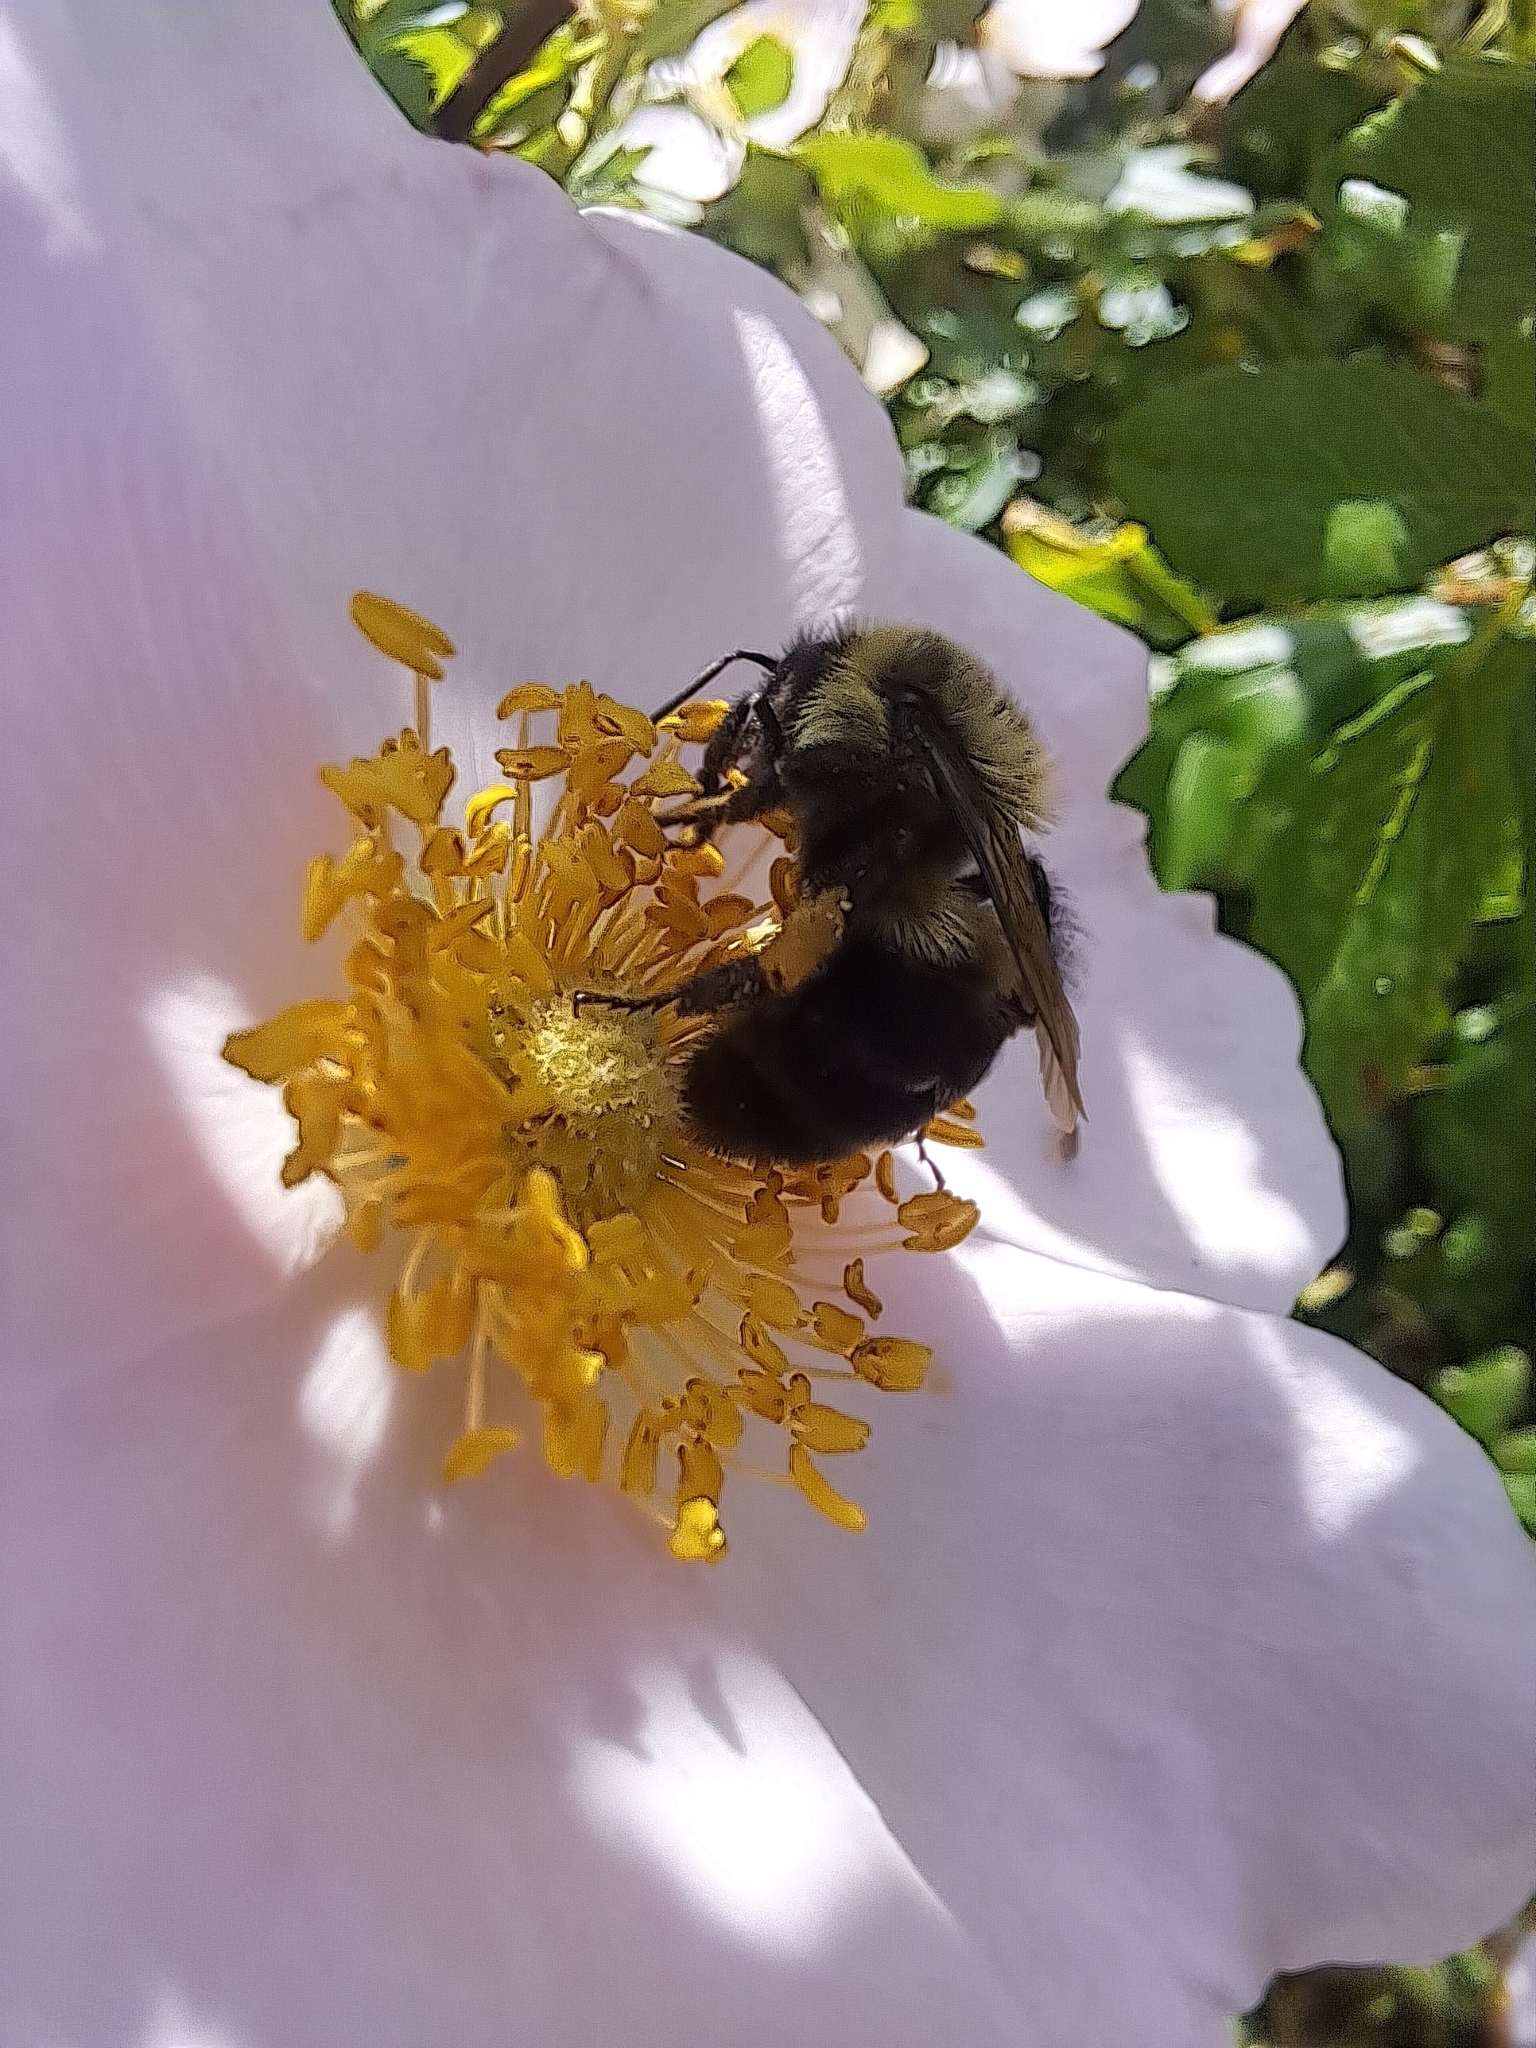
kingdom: Animalia
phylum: Arthropoda
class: Insecta
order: Hymenoptera
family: Apidae
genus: Bombus
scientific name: Bombus impatiens
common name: Common eastern bumble bee
